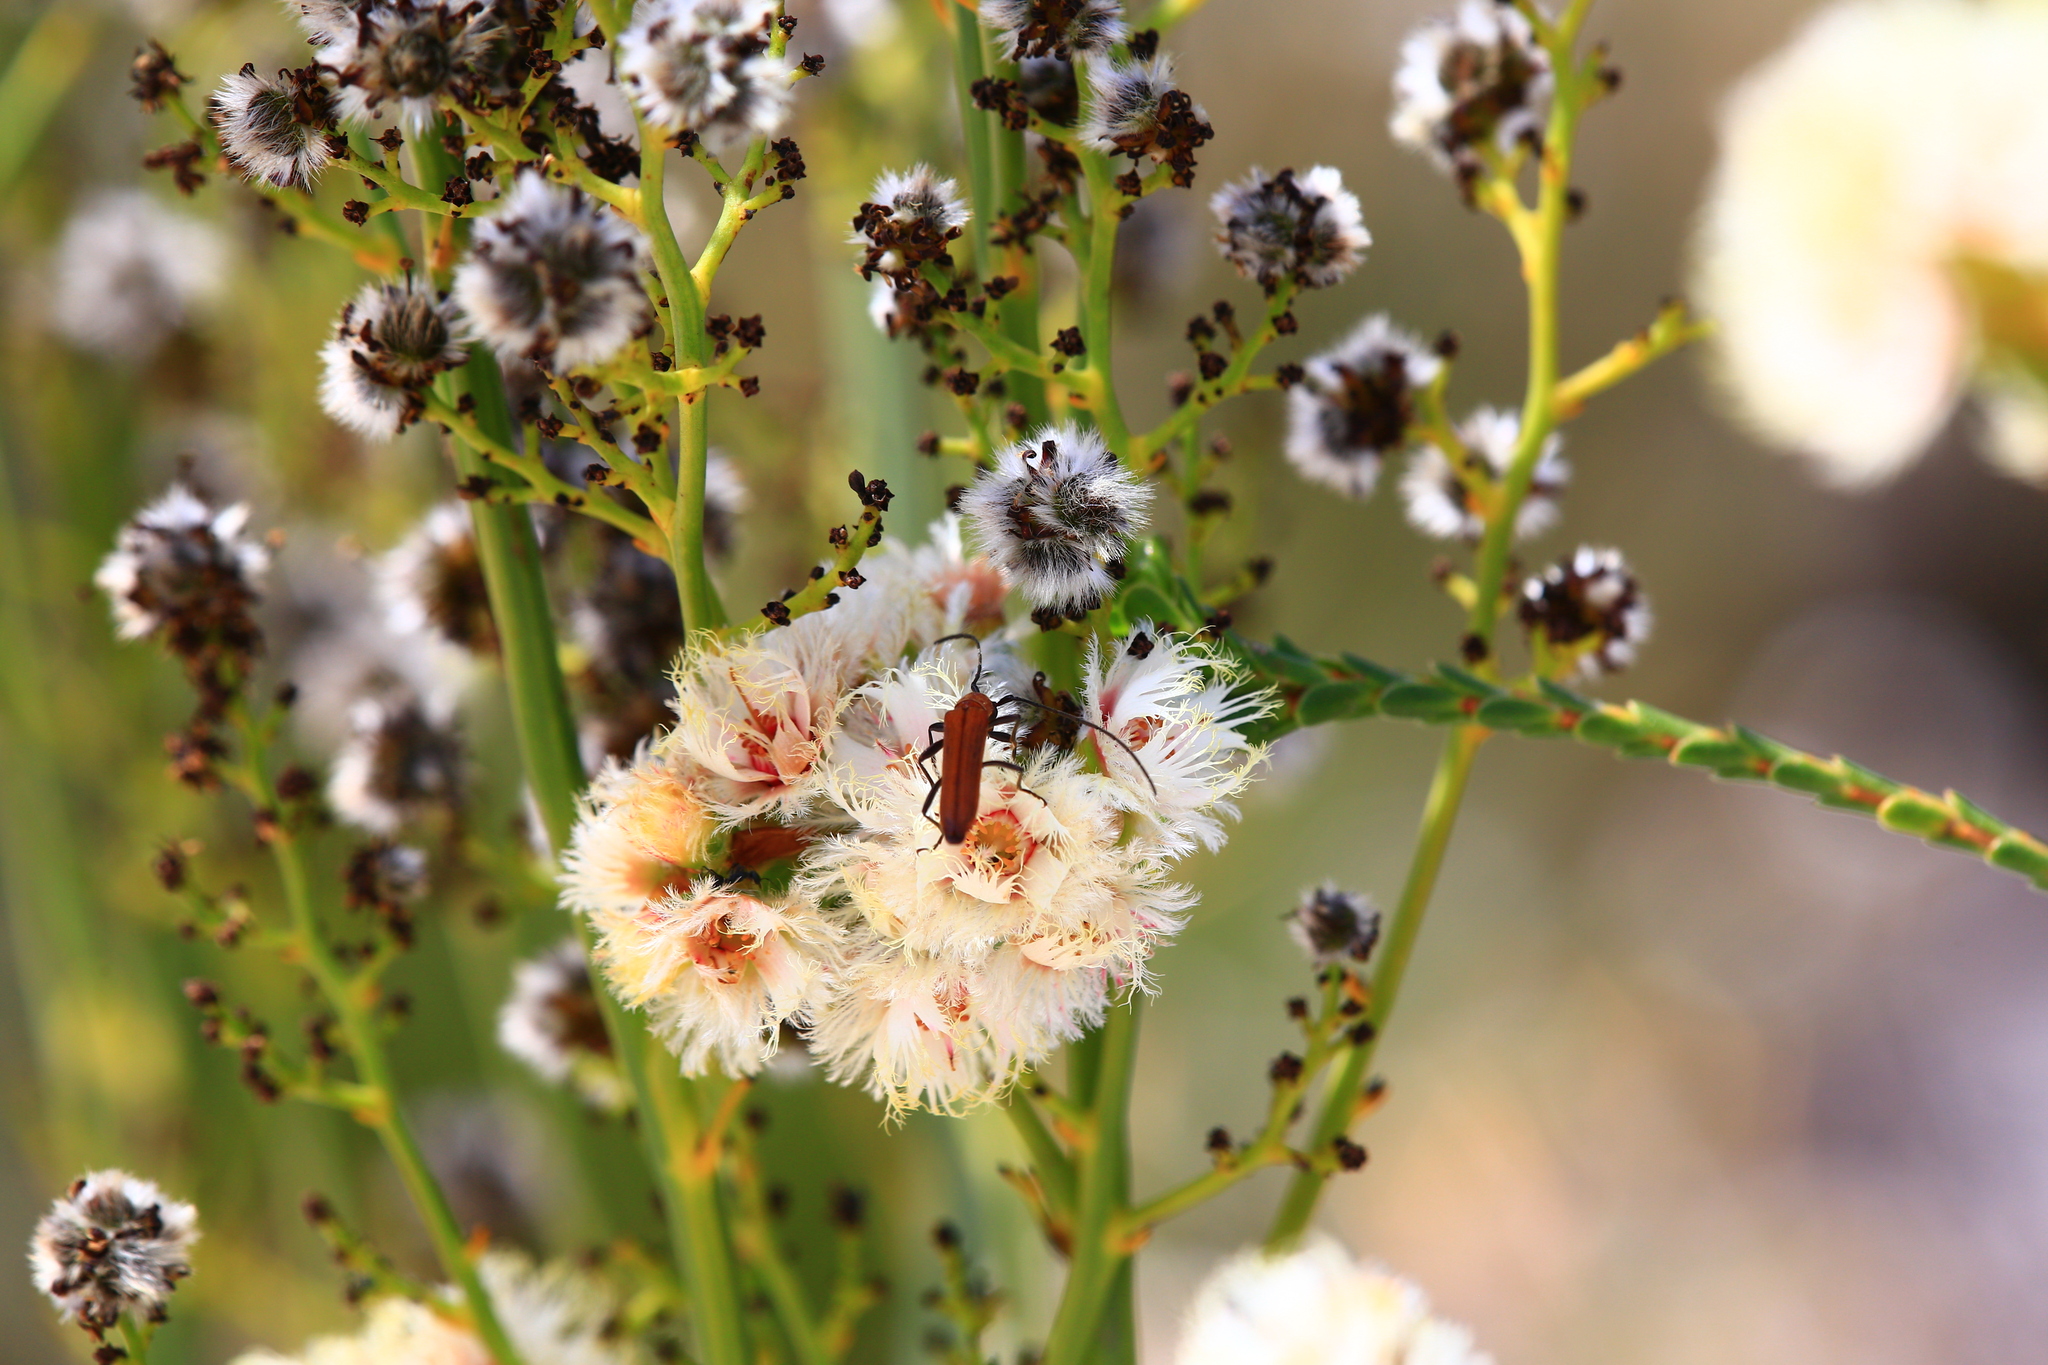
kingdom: Plantae
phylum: Tracheophyta
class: Magnoliopsida
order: Myrtales
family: Myrtaceae
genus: Verticordia
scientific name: Verticordia ovalifolia
